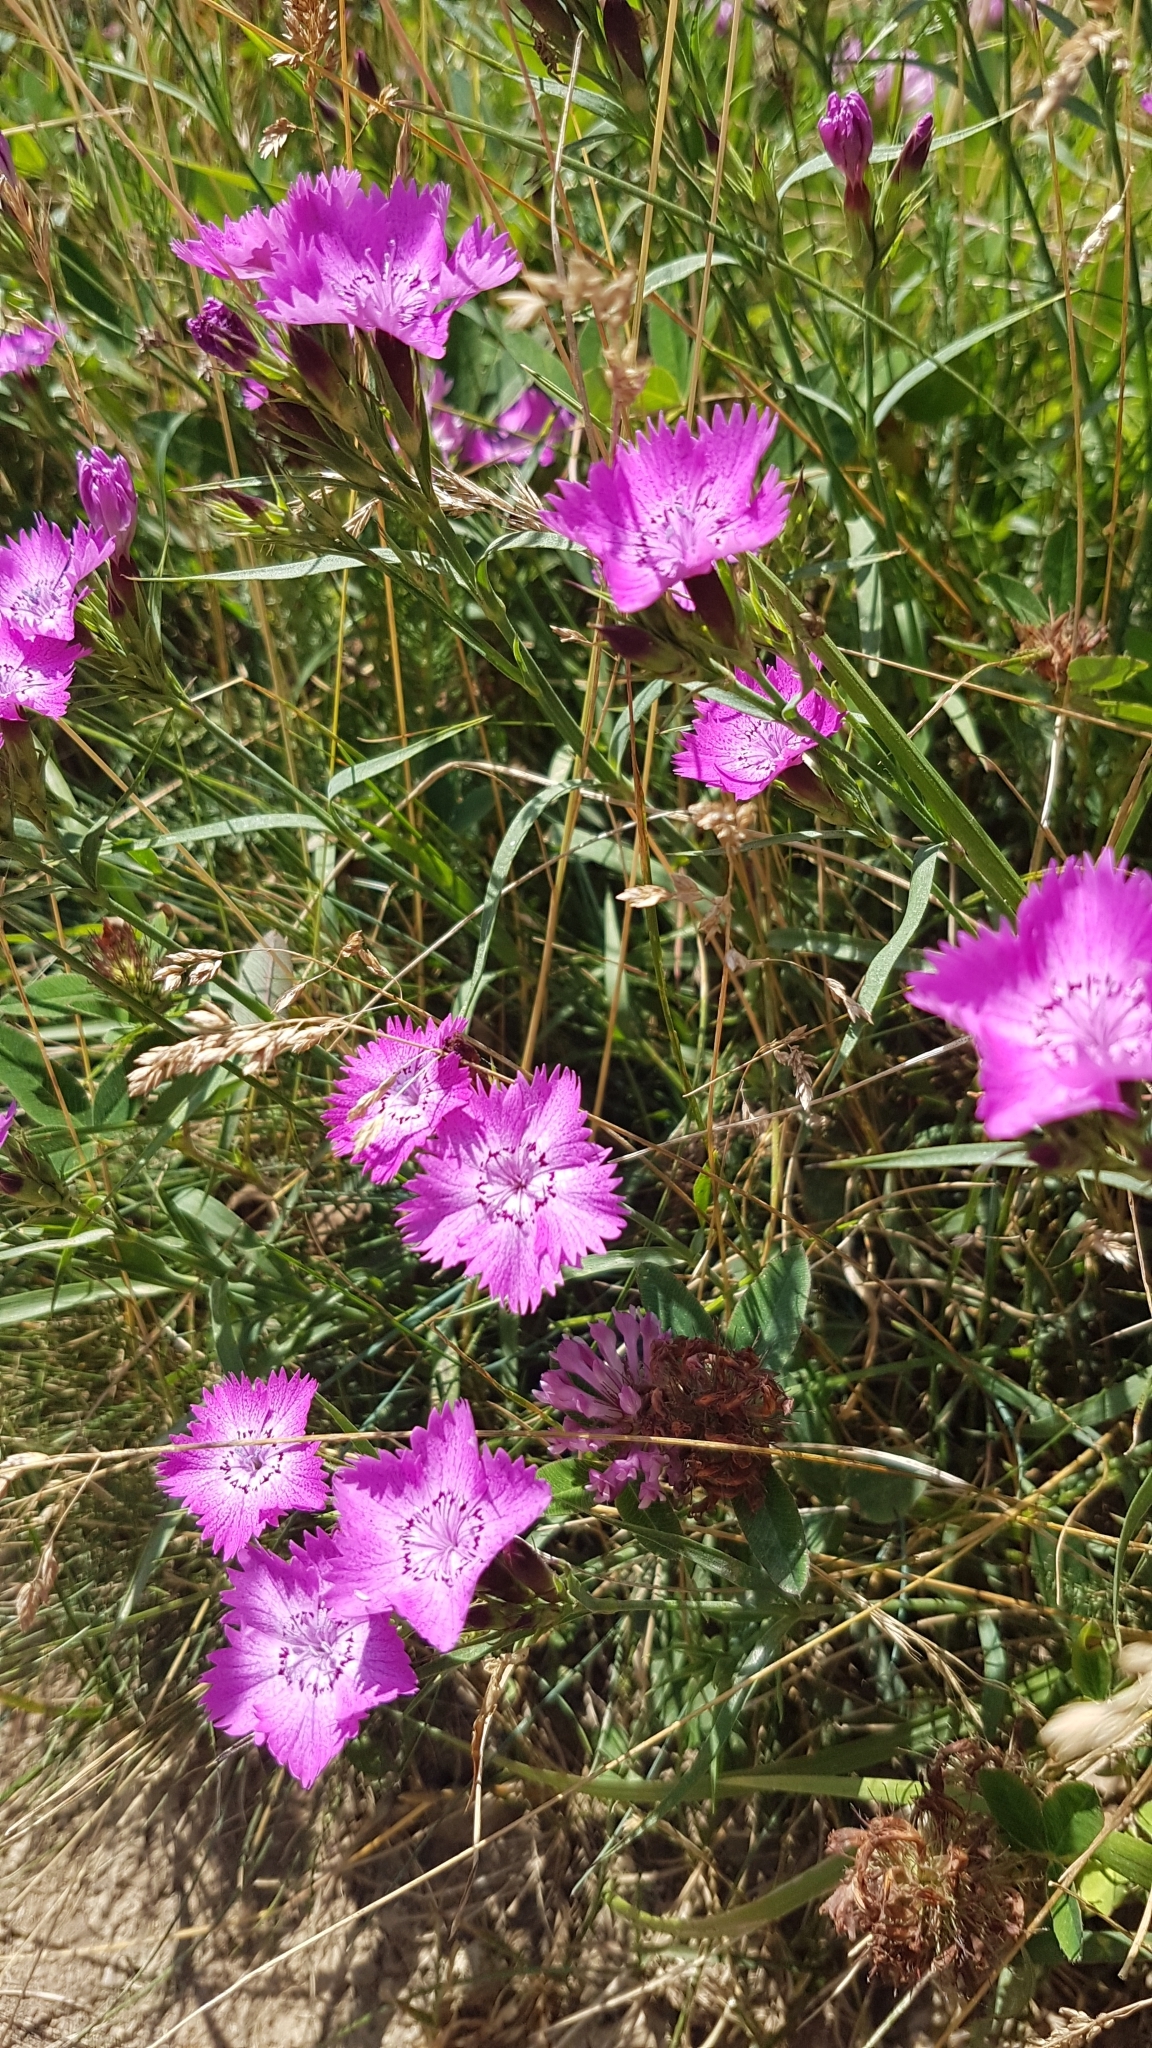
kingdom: Plantae
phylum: Tracheophyta
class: Magnoliopsida
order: Caryophyllales
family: Caryophyllaceae
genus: Dianthus
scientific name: Dianthus seguieri
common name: Ragged pink
